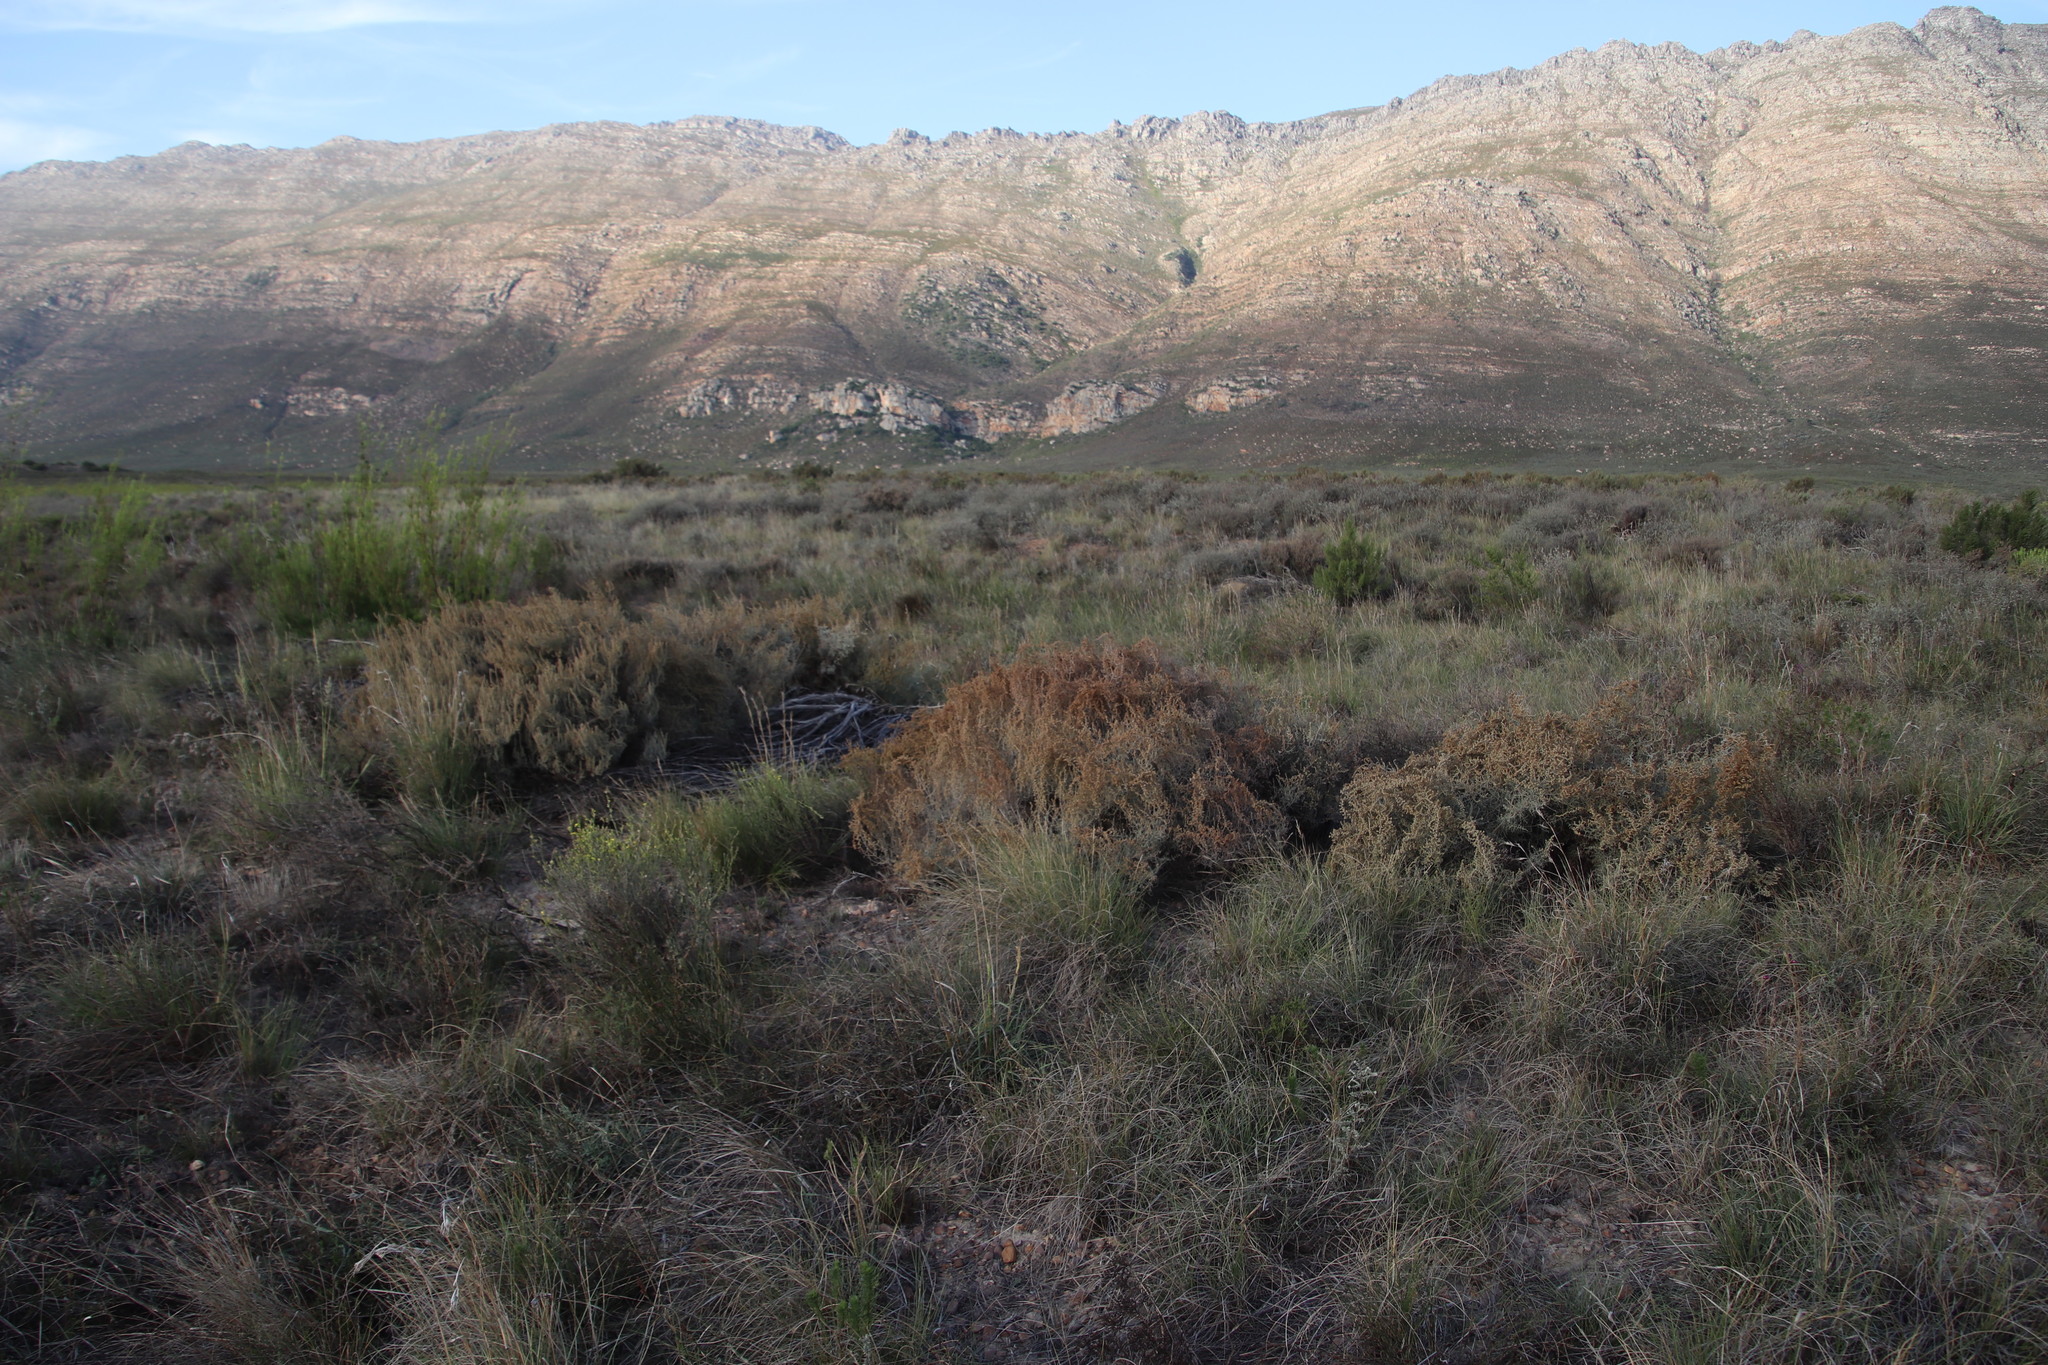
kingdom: Plantae
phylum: Tracheophyta
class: Magnoliopsida
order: Asterales
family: Asteraceae
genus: Seriphium
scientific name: Seriphium plumosum
